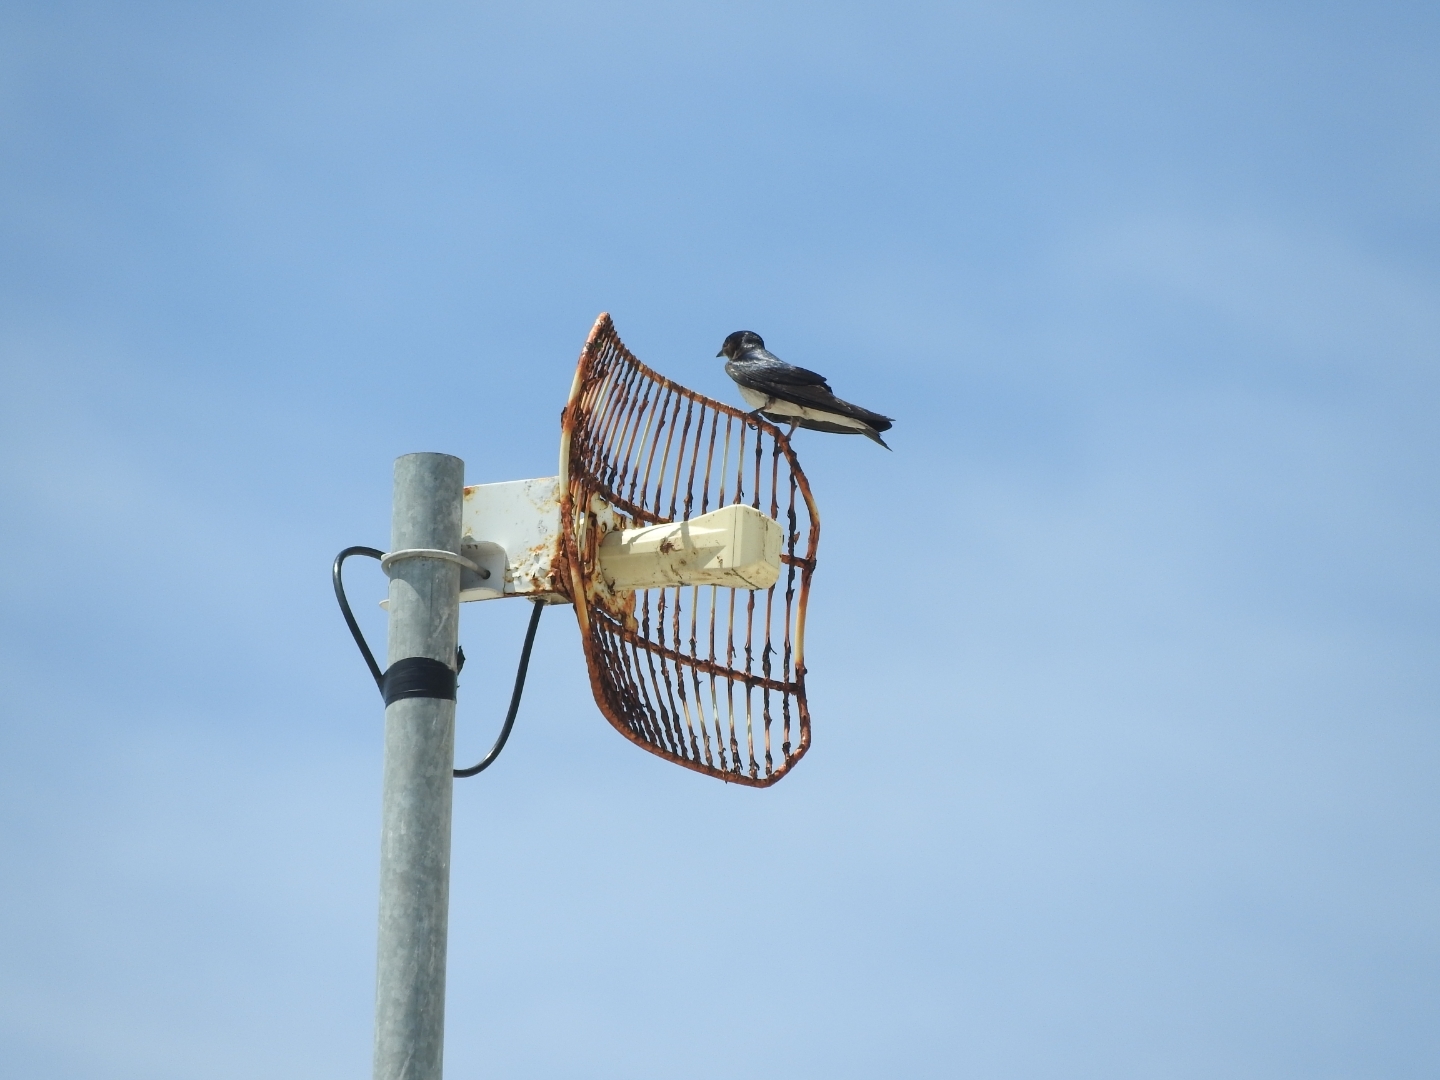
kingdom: Animalia
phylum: Chordata
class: Aves
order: Passeriformes
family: Hirundinidae
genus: Progne
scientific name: Progne chalybea
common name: Grey-breasted martin
